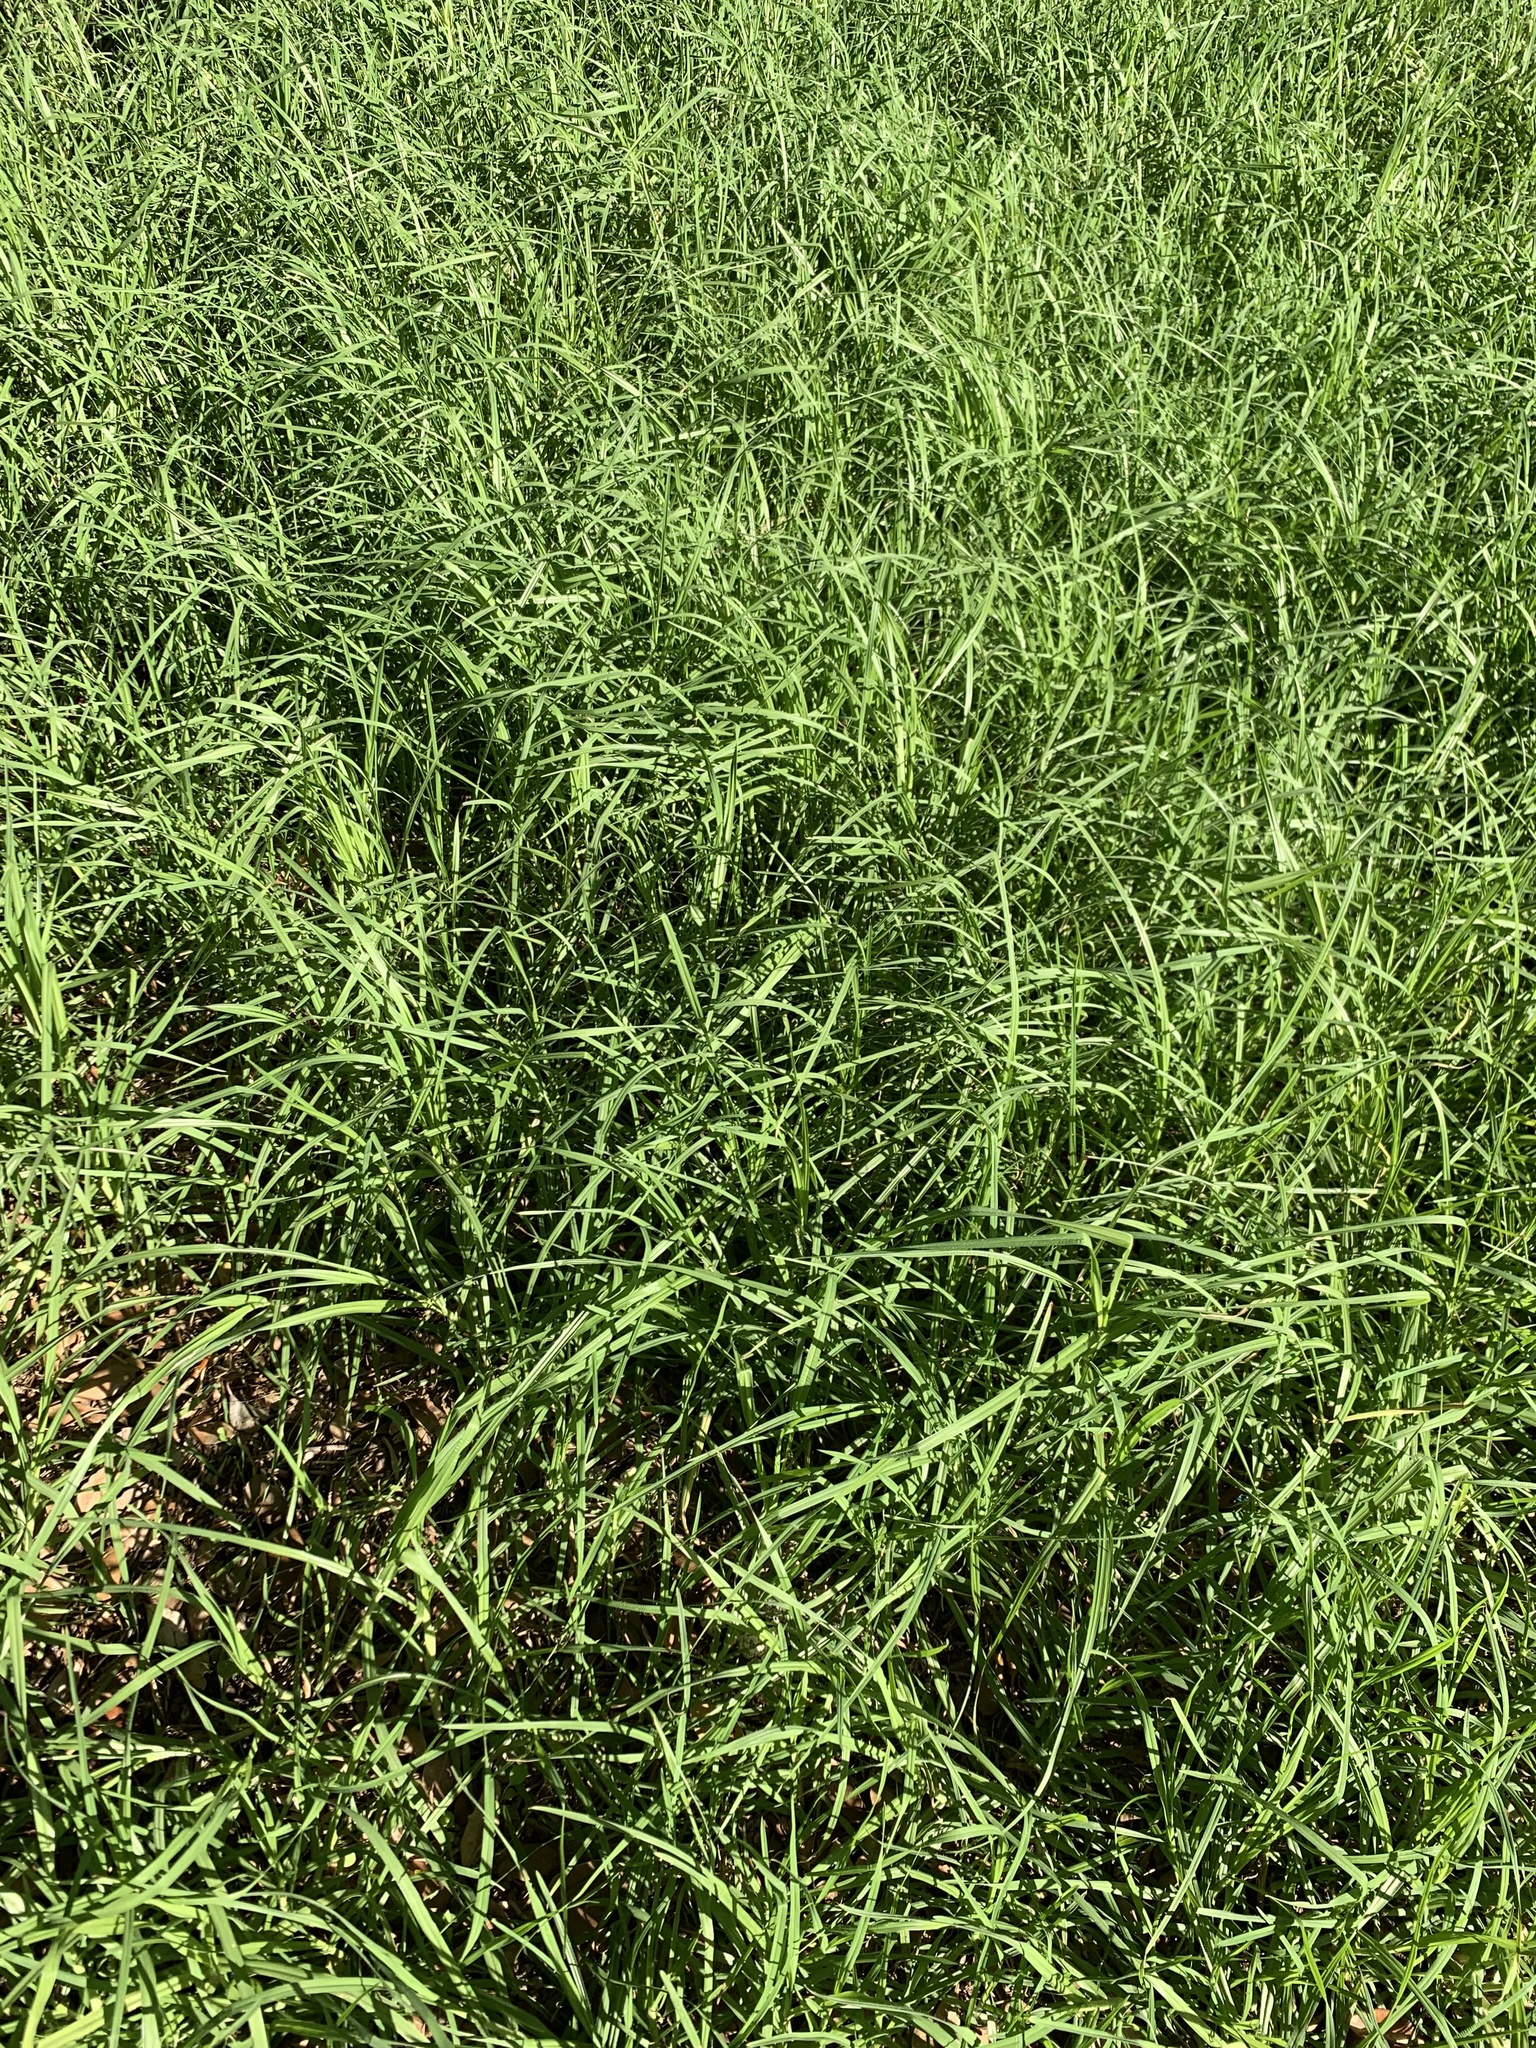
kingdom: Plantae
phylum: Tracheophyta
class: Liliopsida
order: Poales
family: Poaceae
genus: Cenchrus
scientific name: Cenchrus clandestinus
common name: Kikuyugrass
